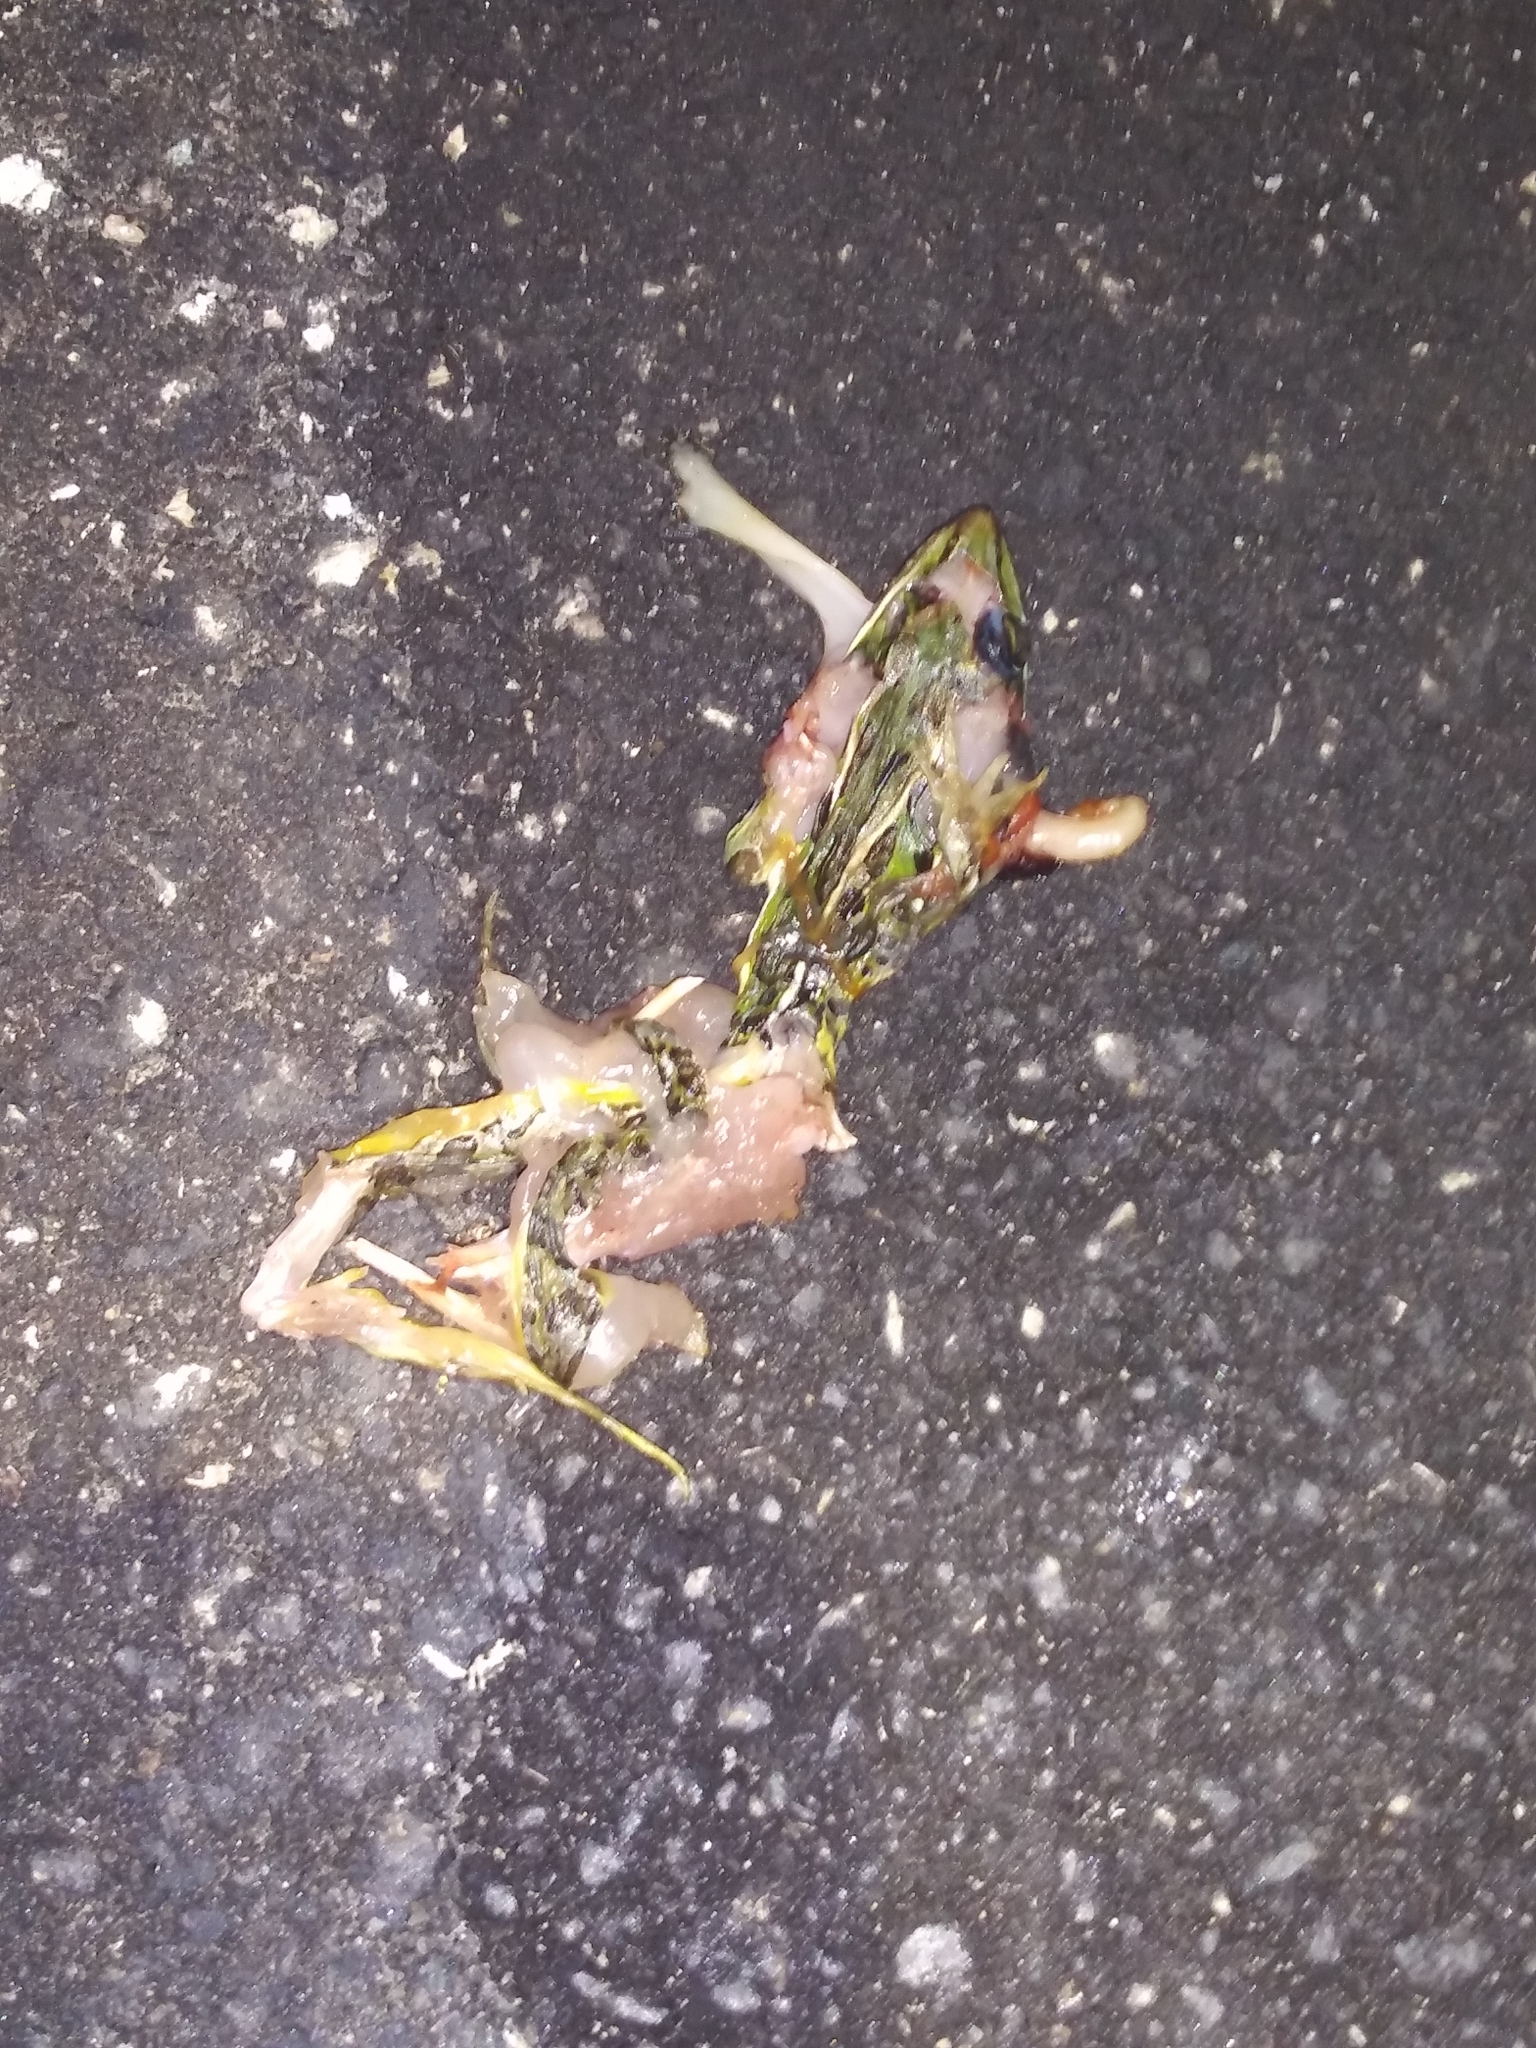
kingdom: Animalia
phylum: Chordata
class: Amphibia
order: Anura
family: Ranidae
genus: Lithobates
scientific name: Lithobates sphenocephalus
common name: Southern leopard frog
